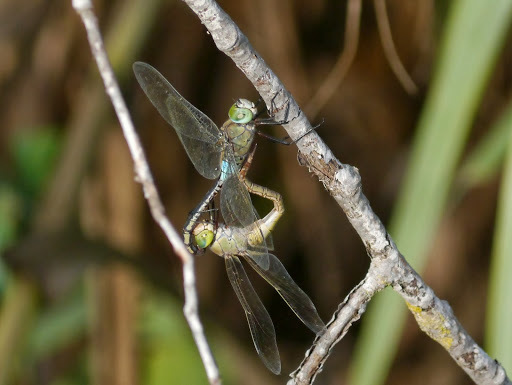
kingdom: Animalia
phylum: Arthropoda
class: Insecta
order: Odonata
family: Aeshnidae
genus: Anax
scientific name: Anax parthenope
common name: Lesser emperor
